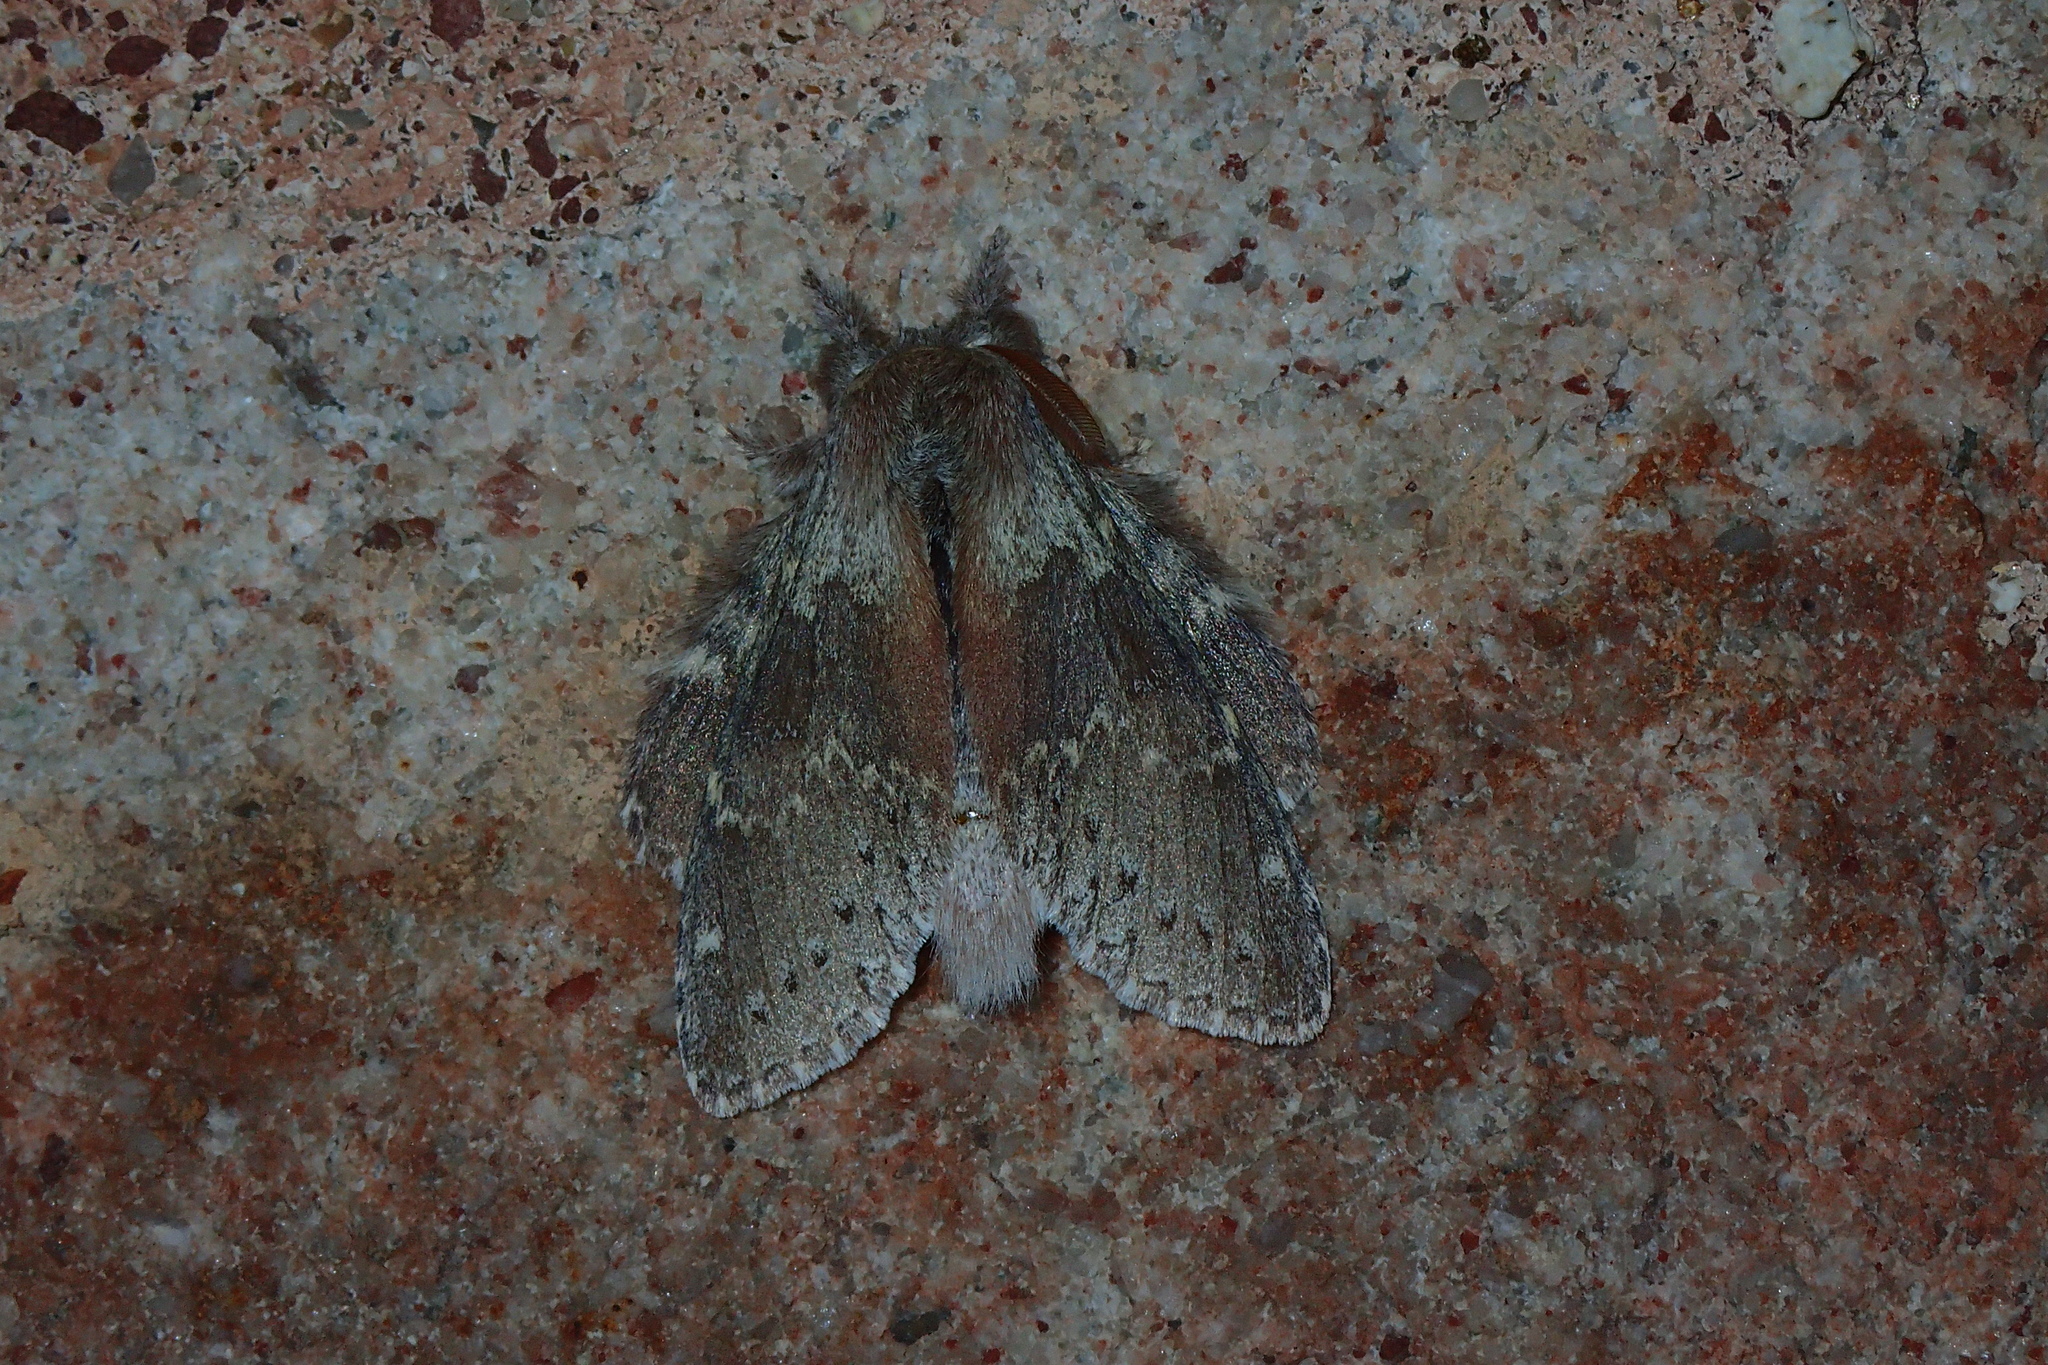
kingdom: Animalia
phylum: Arthropoda
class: Insecta
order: Lepidoptera
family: Notodontidae
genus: Stauropus
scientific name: Stauropus fagi
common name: Lobster moth
